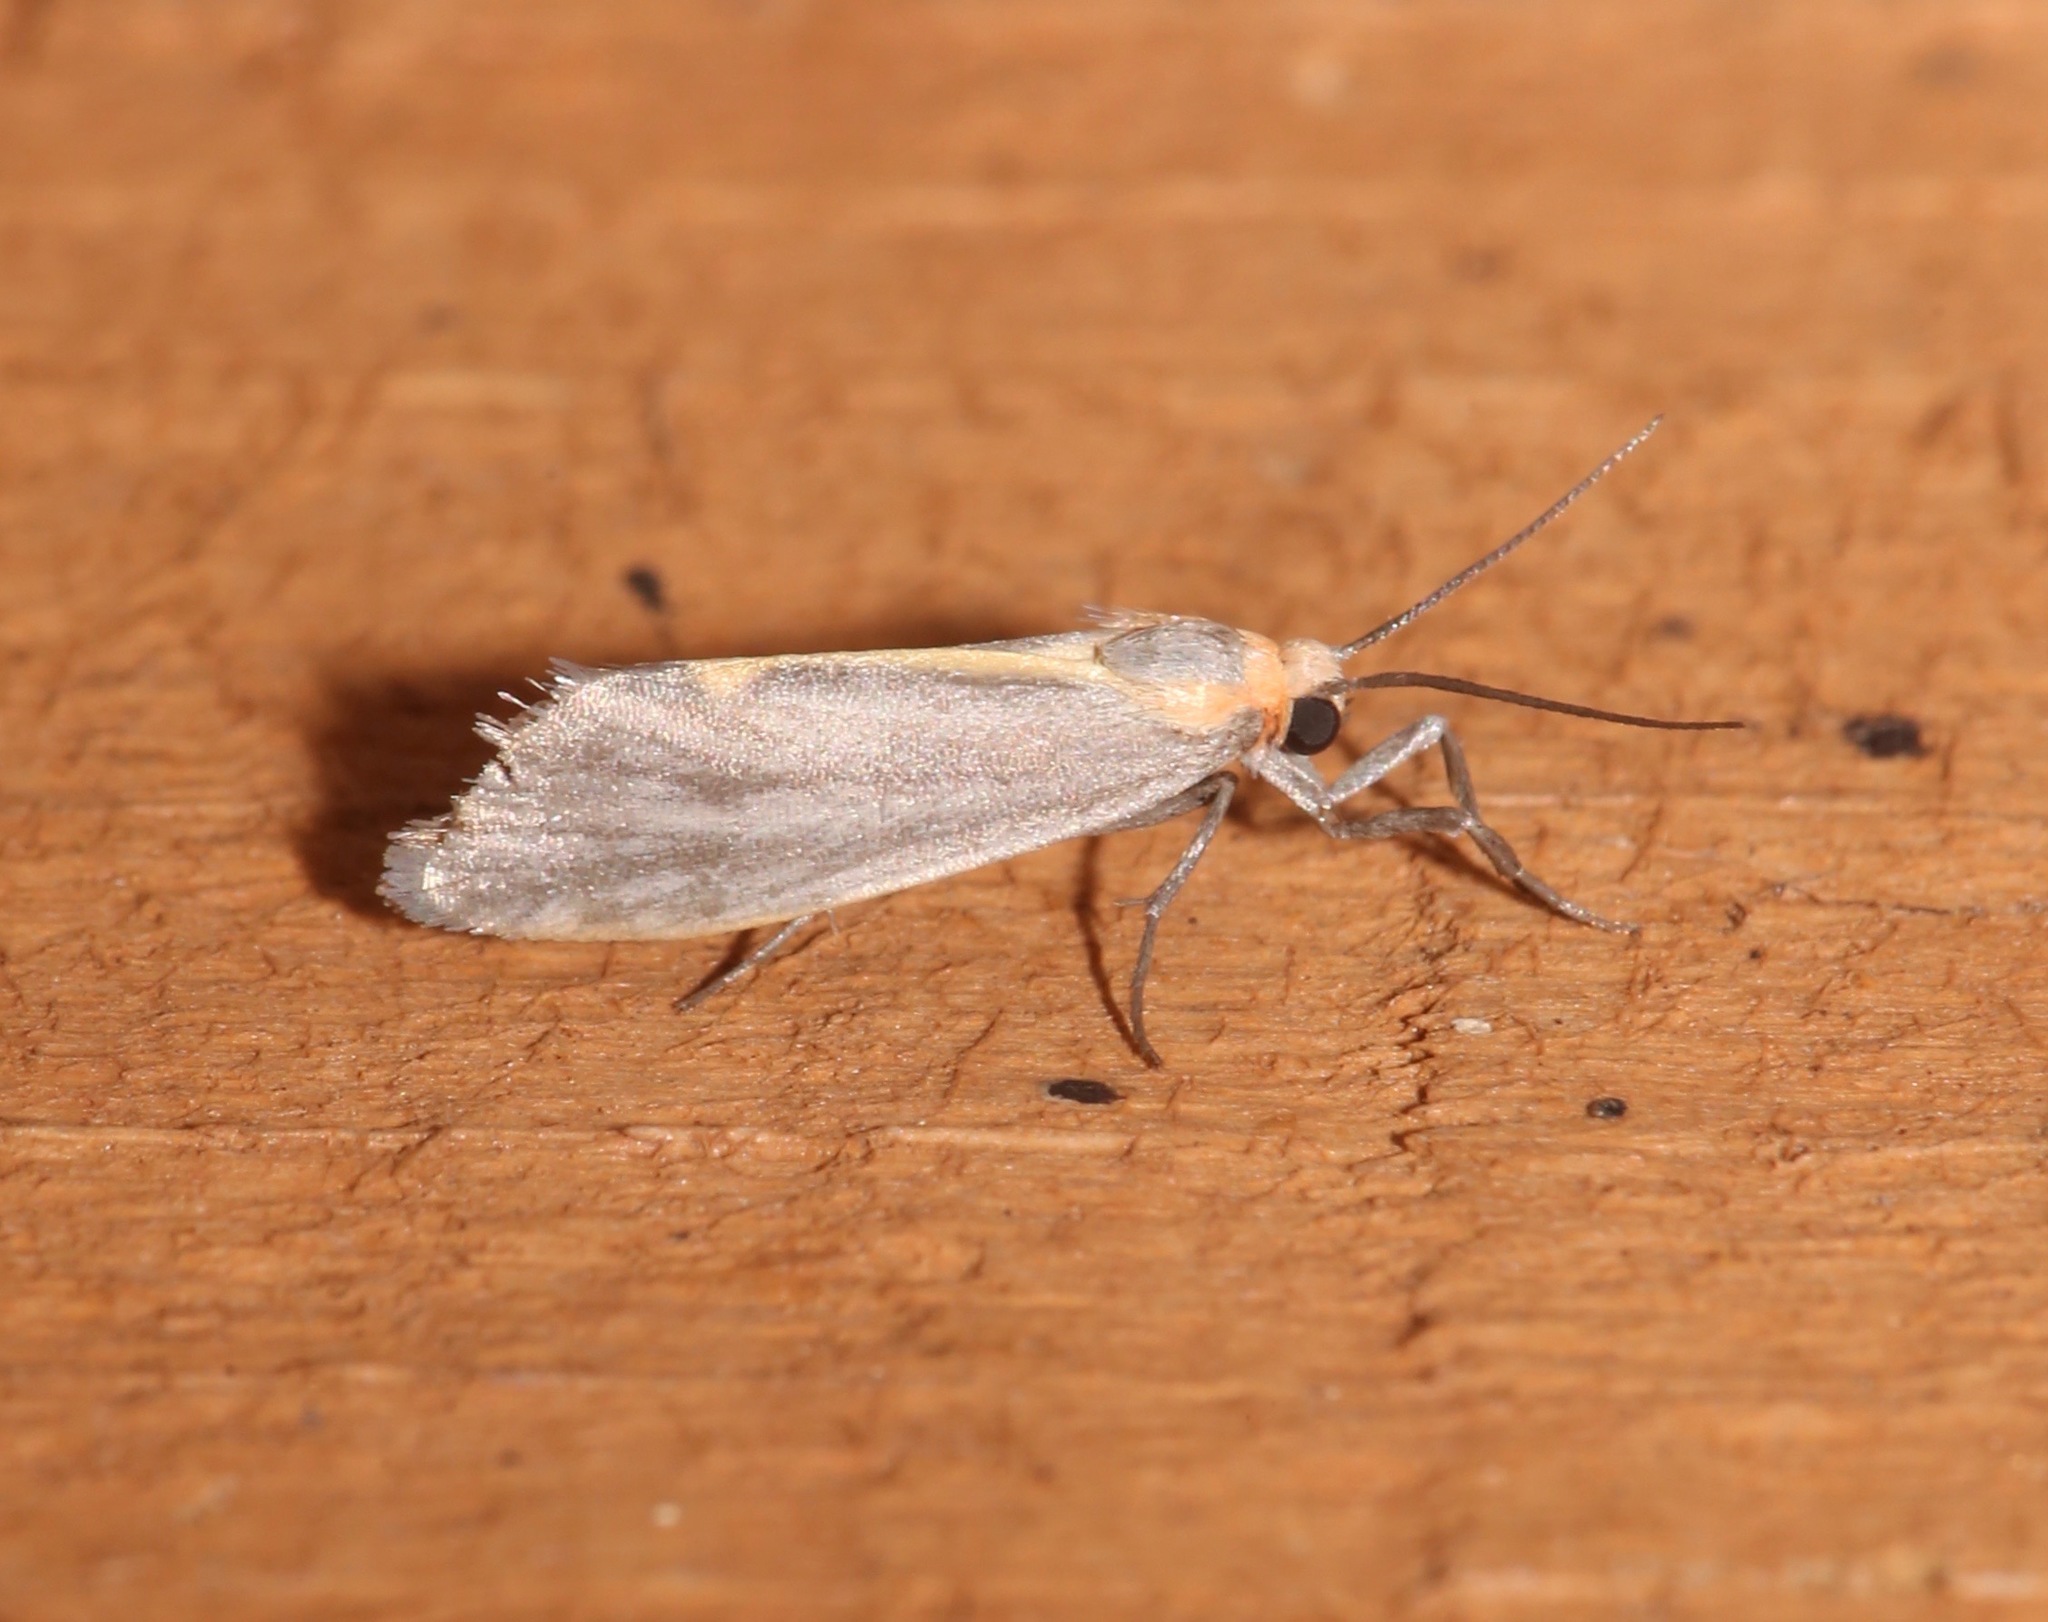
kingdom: Animalia
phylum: Arthropoda
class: Insecta
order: Lepidoptera
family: Erebidae
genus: Cisthene
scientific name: Cisthene striata
